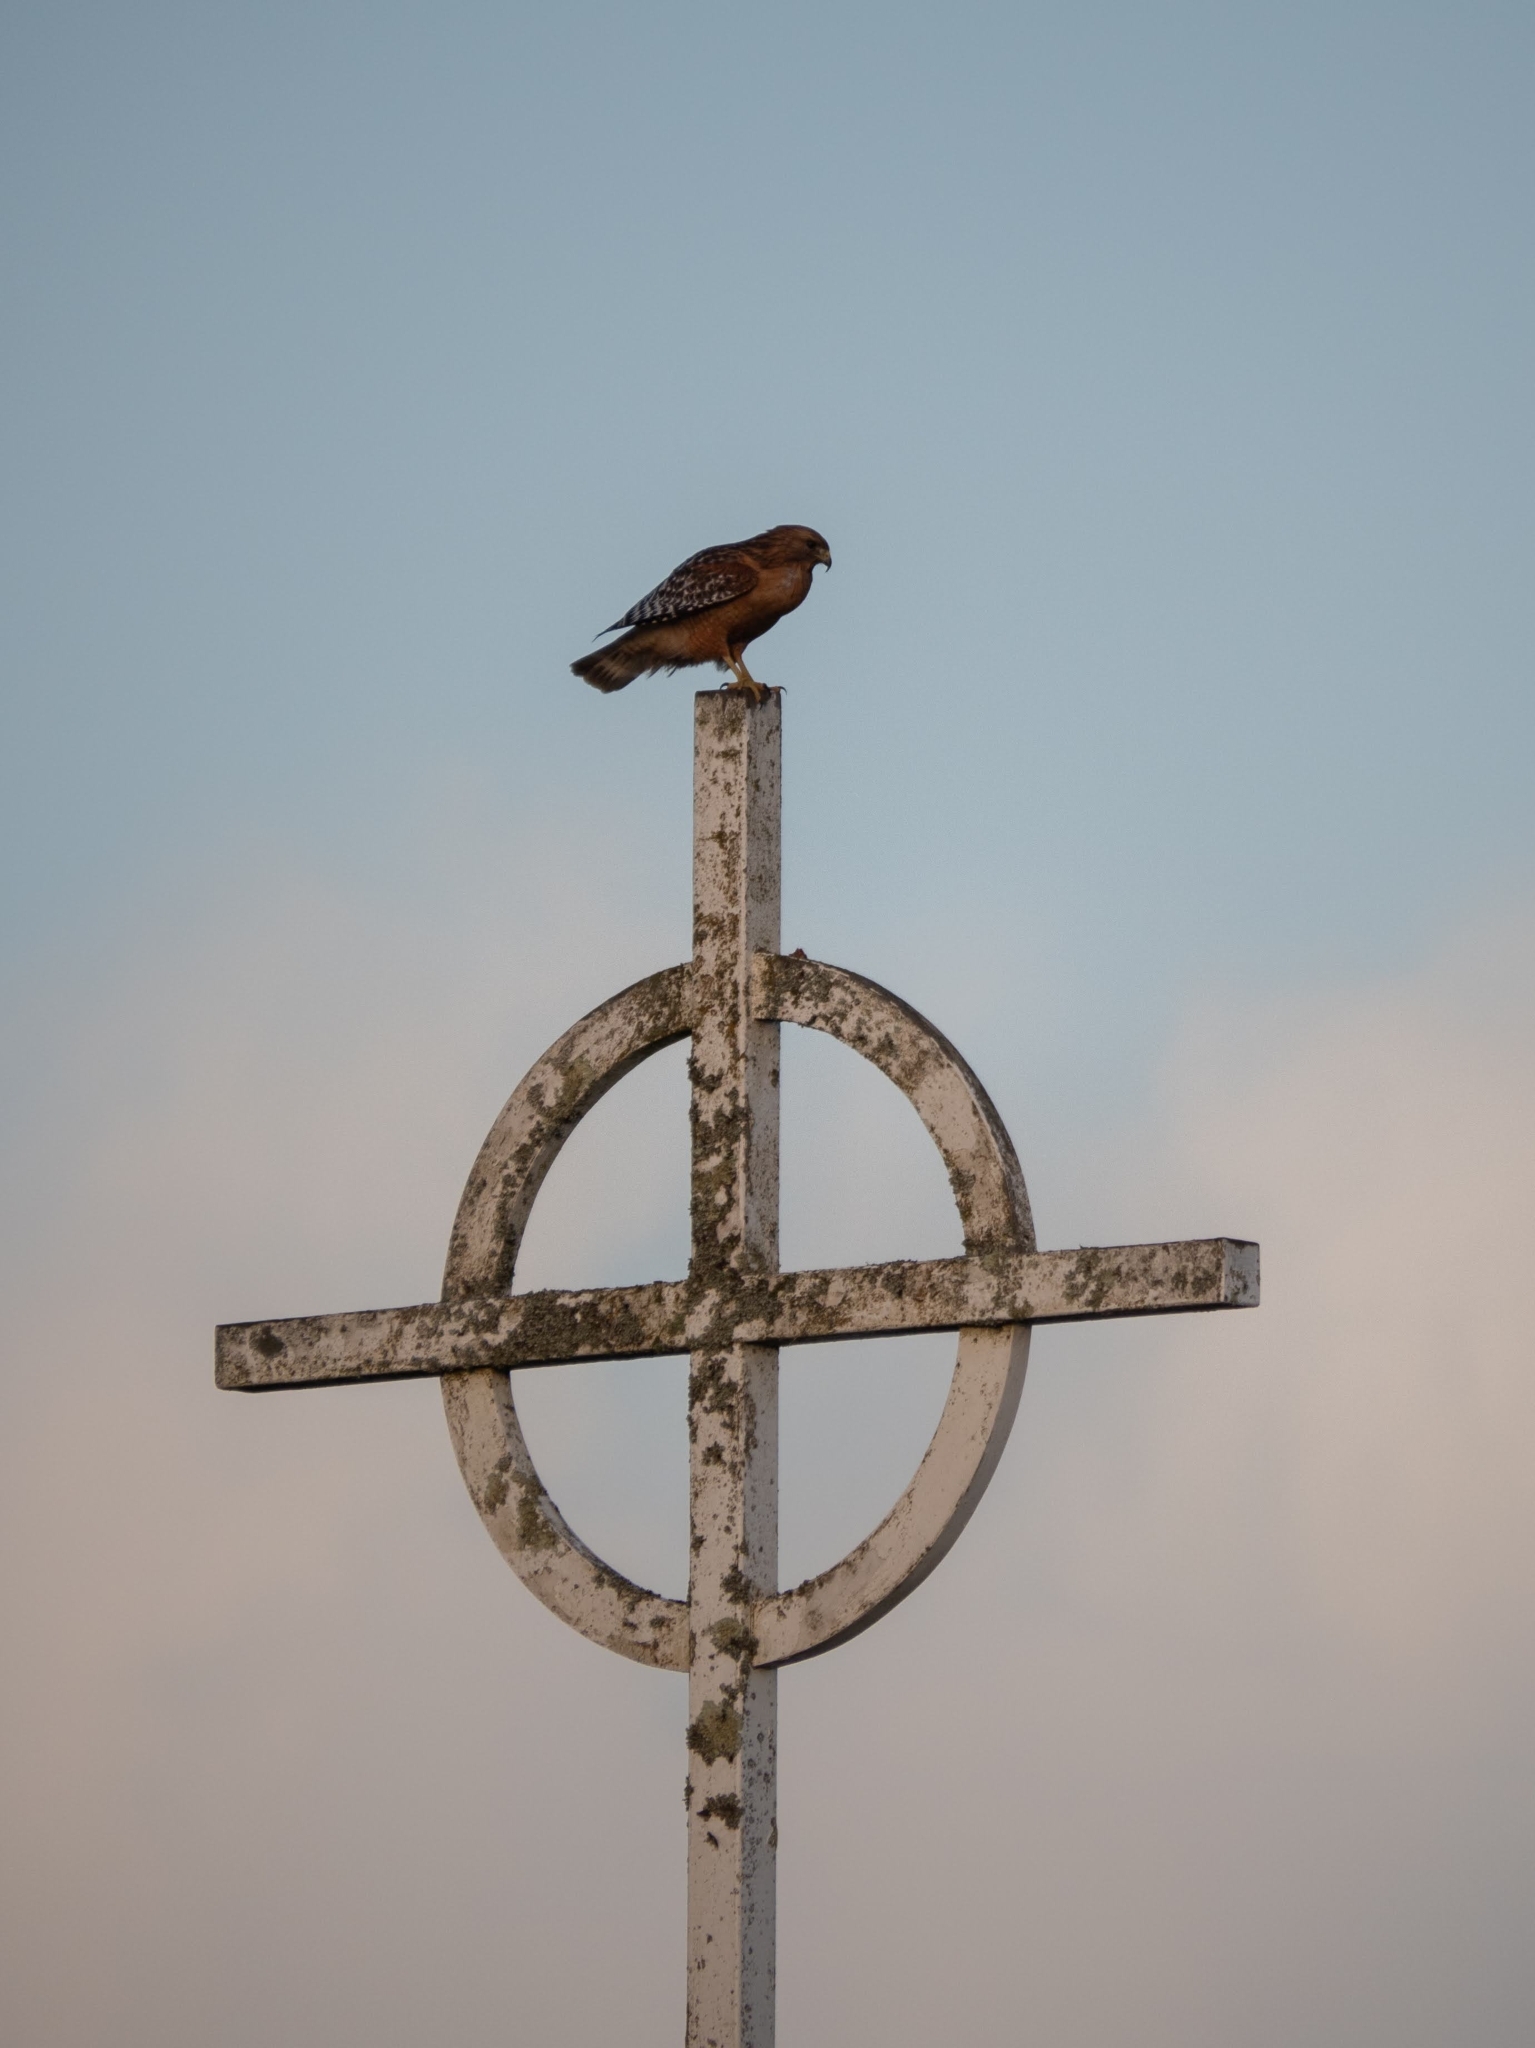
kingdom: Animalia
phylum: Chordata
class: Aves
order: Accipitriformes
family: Accipitridae
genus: Buteo
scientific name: Buteo lineatus
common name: Red-shouldered hawk
